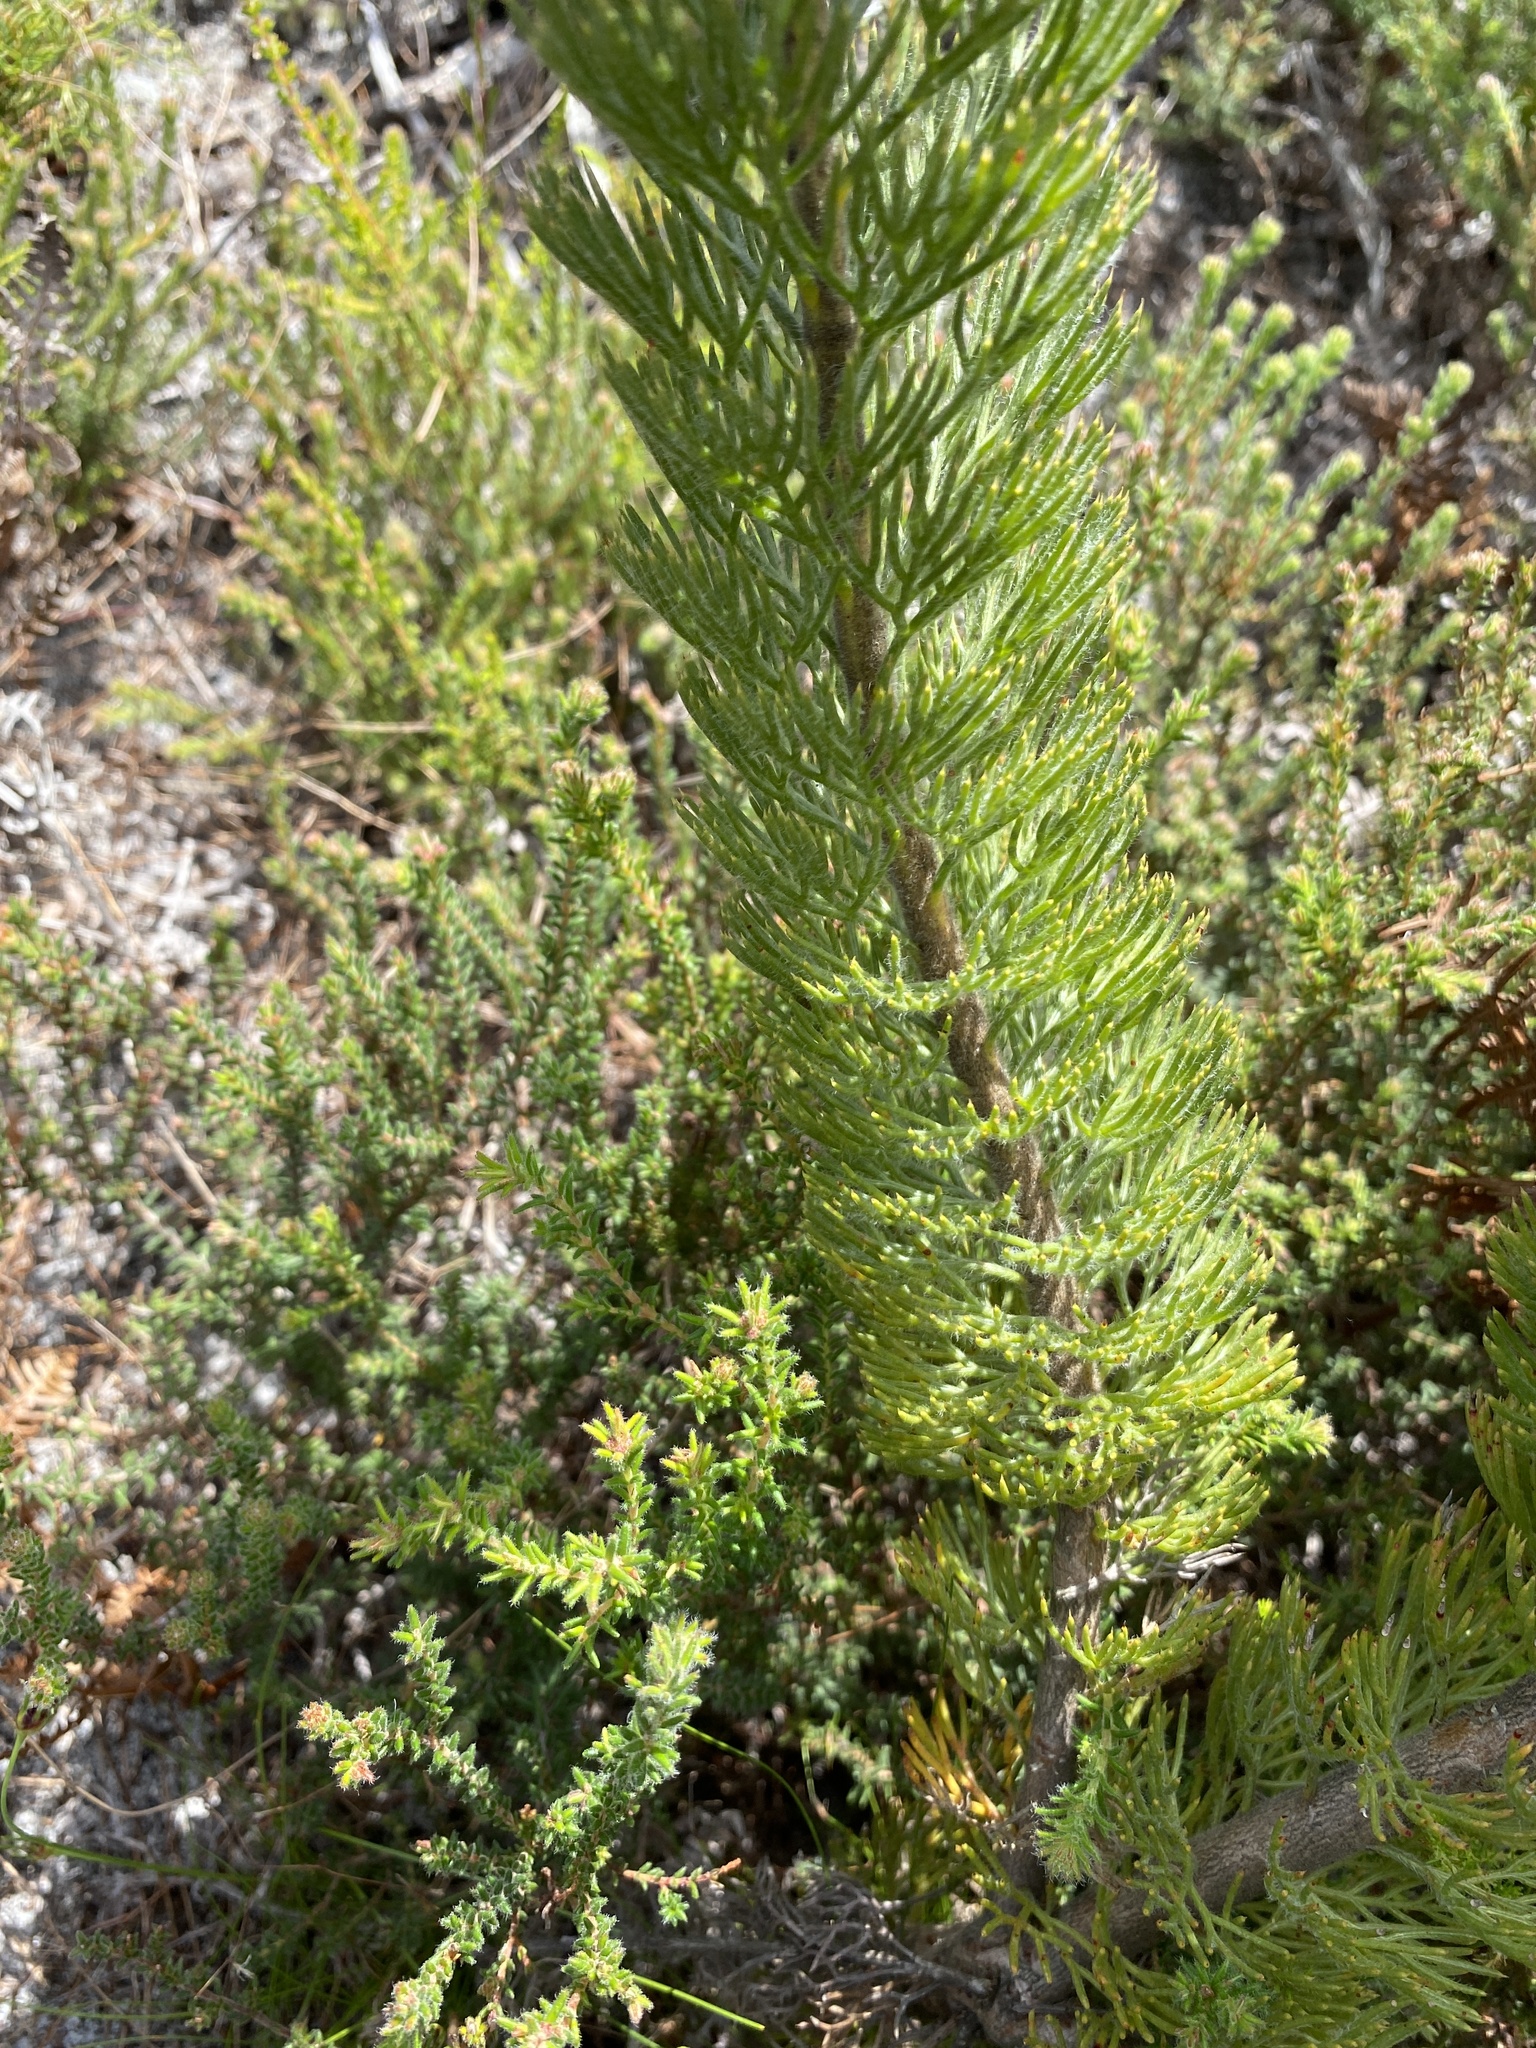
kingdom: Plantae
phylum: Tracheophyta
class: Magnoliopsida
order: Proteales
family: Proteaceae
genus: Serruria
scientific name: Serruria villosa
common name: Golden spiderhead
